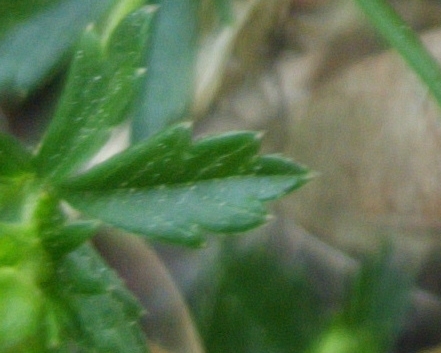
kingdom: Plantae
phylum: Tracheophyta
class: Magnoliopsida
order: Rosales
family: Rosaceae
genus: Potentilla
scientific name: Potentilla erecta
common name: Tormentil
